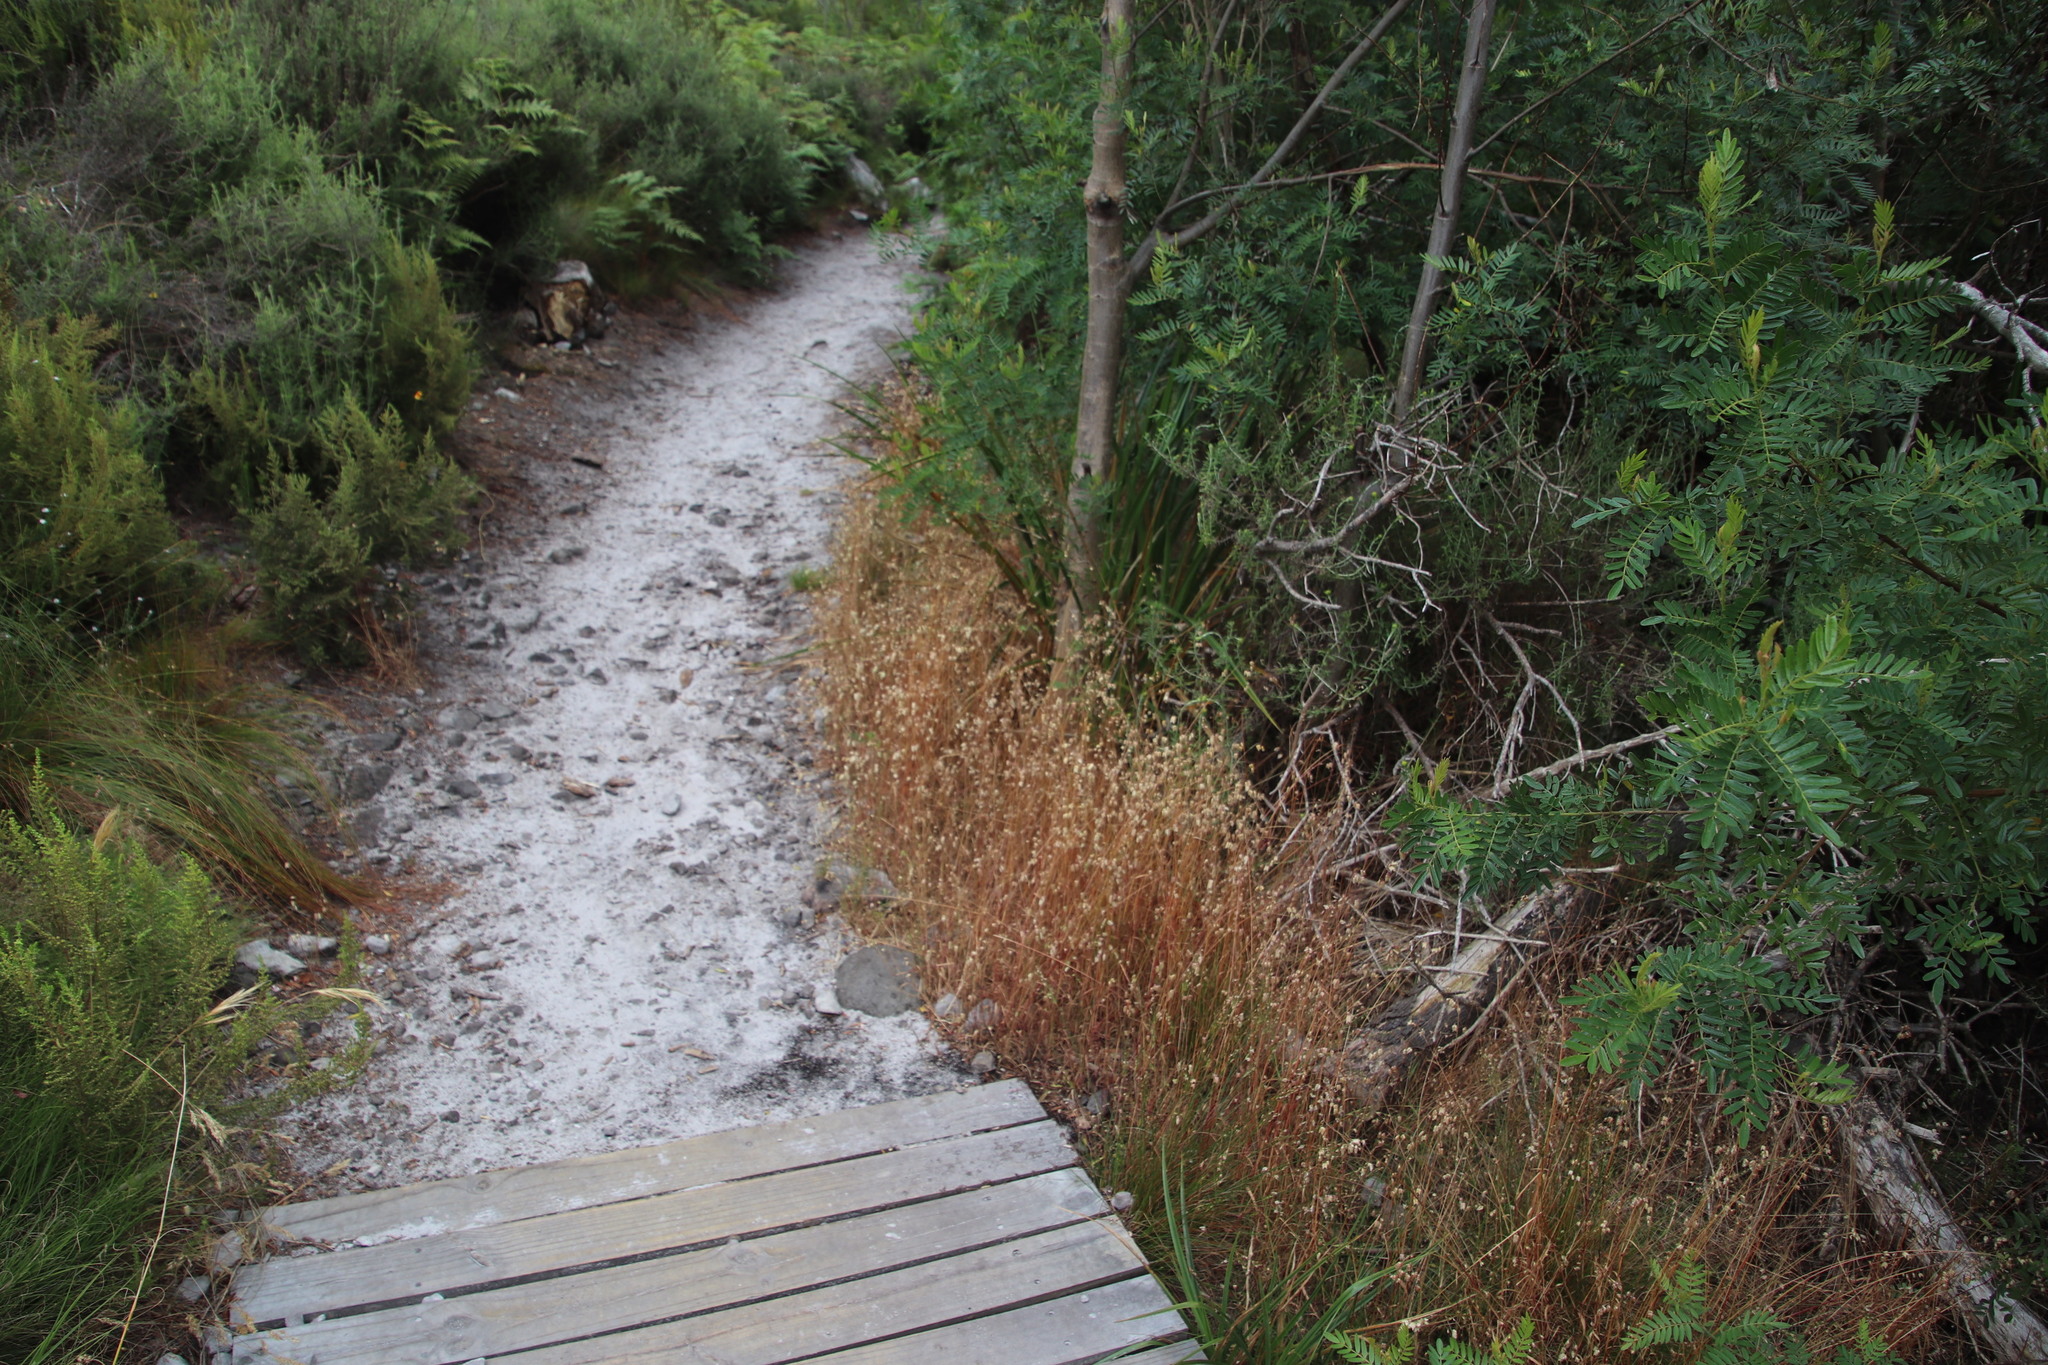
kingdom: Plantae
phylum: Tracheophyta
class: Liliopsida
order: Poales
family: Poaceae
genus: Briza
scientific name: Briza maxima
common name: Big quakinggrass
